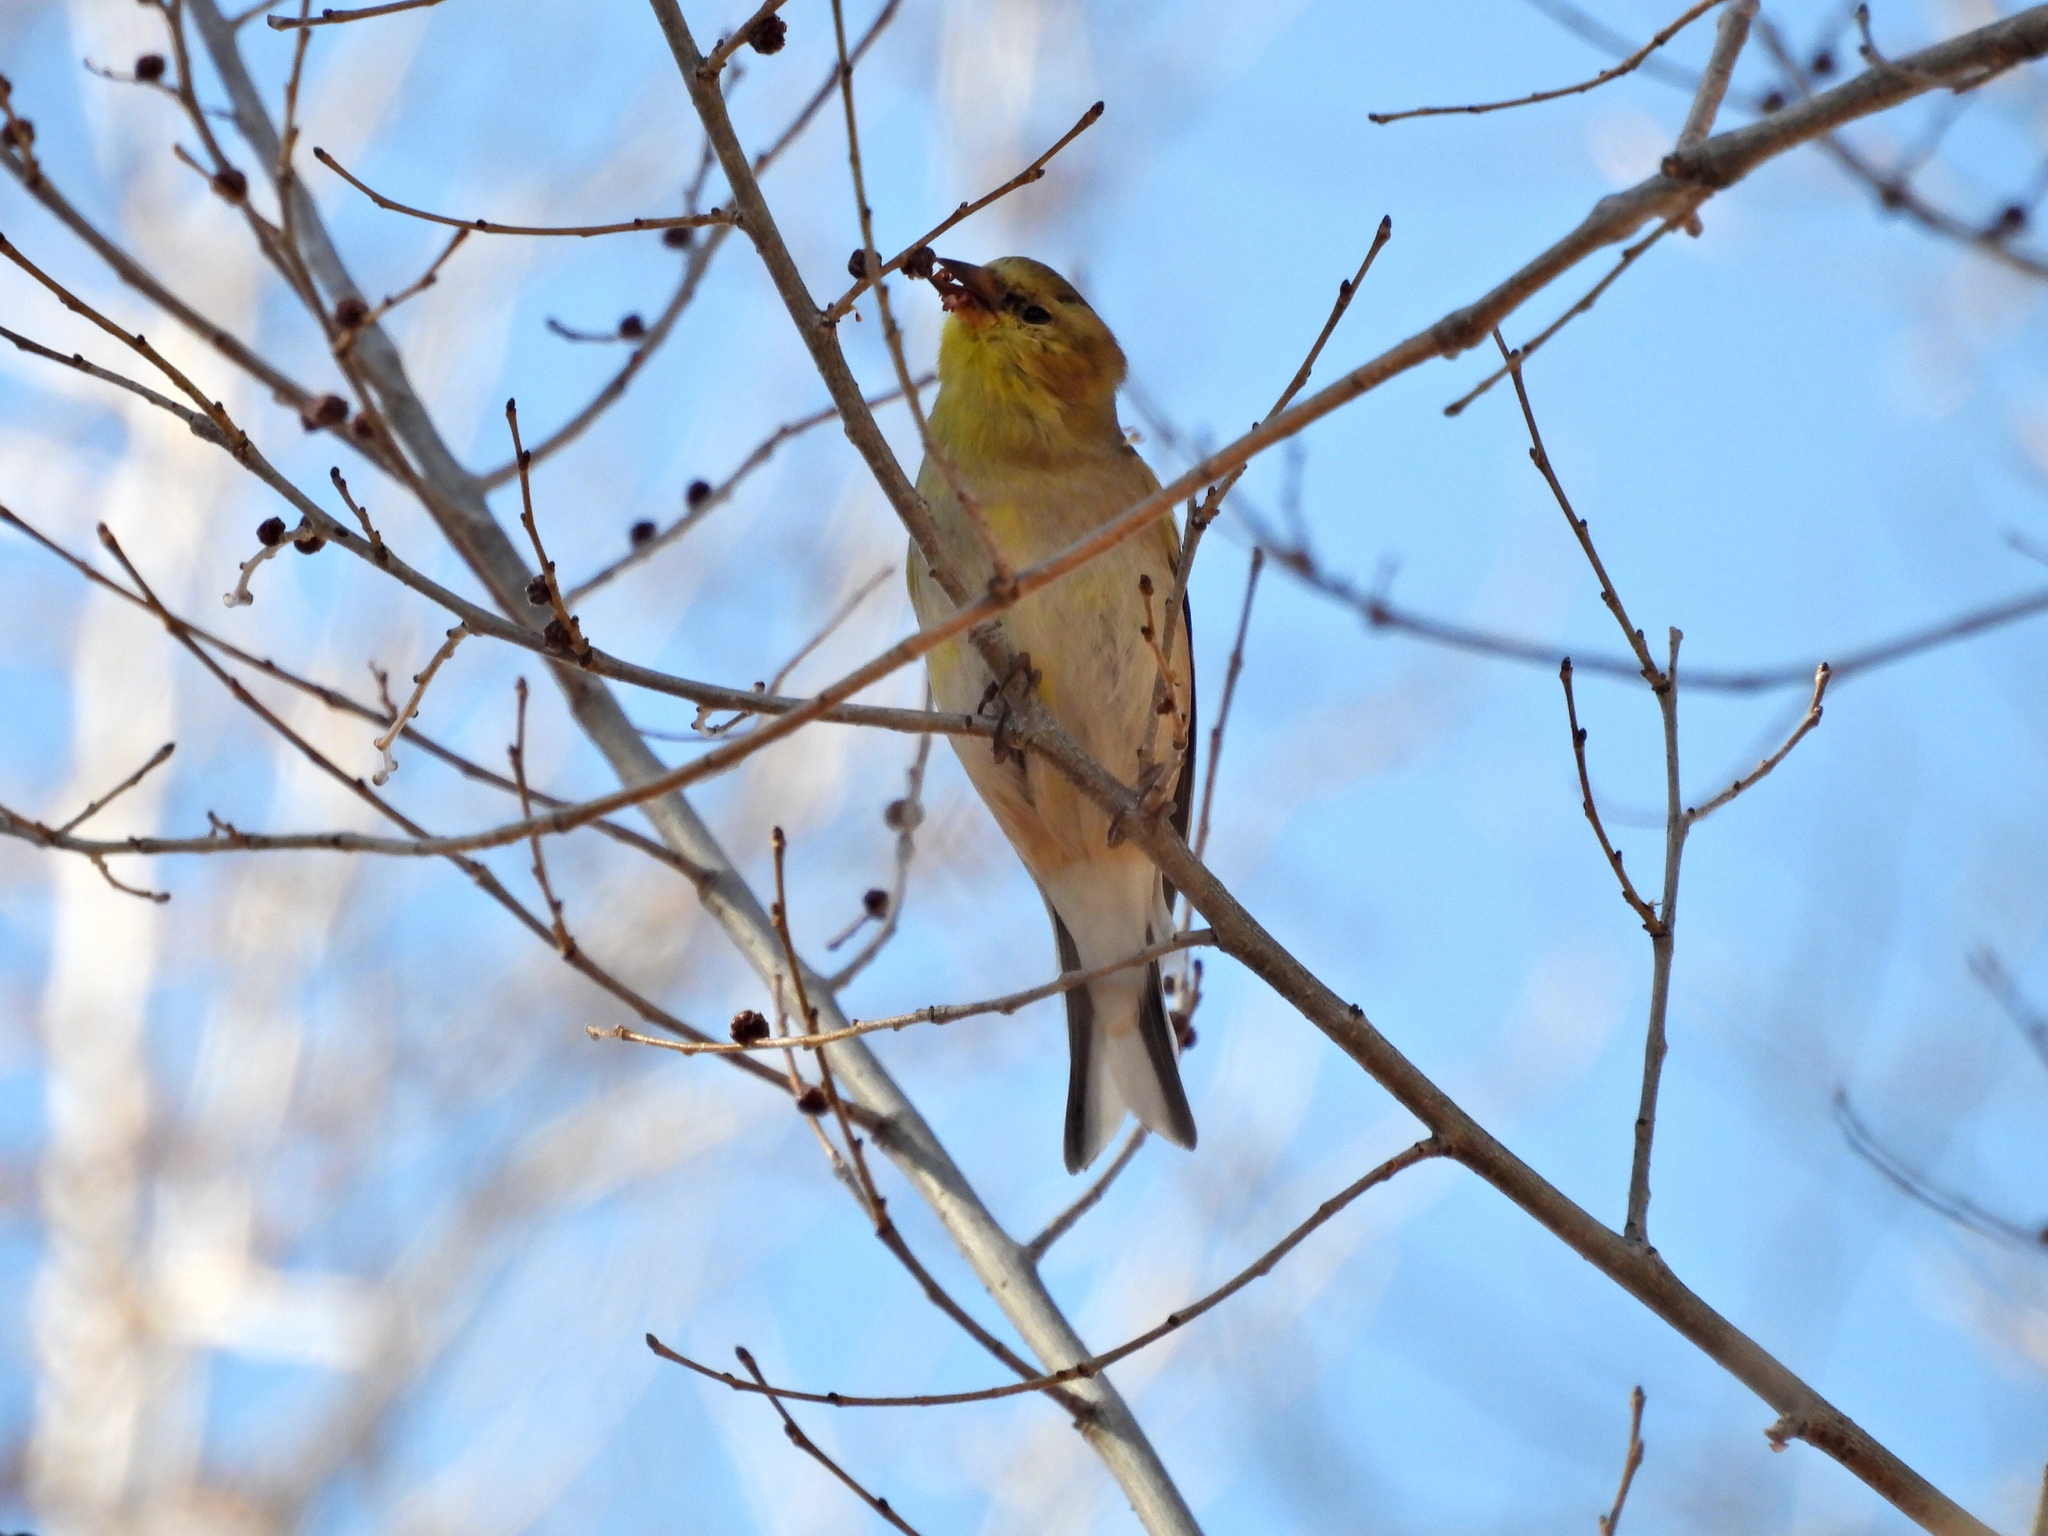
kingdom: Animalia
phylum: Chordata
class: Aves
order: Passeriformes
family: Fringillidae
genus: Spinus
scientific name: Spinus tristis
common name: American goldfinch
